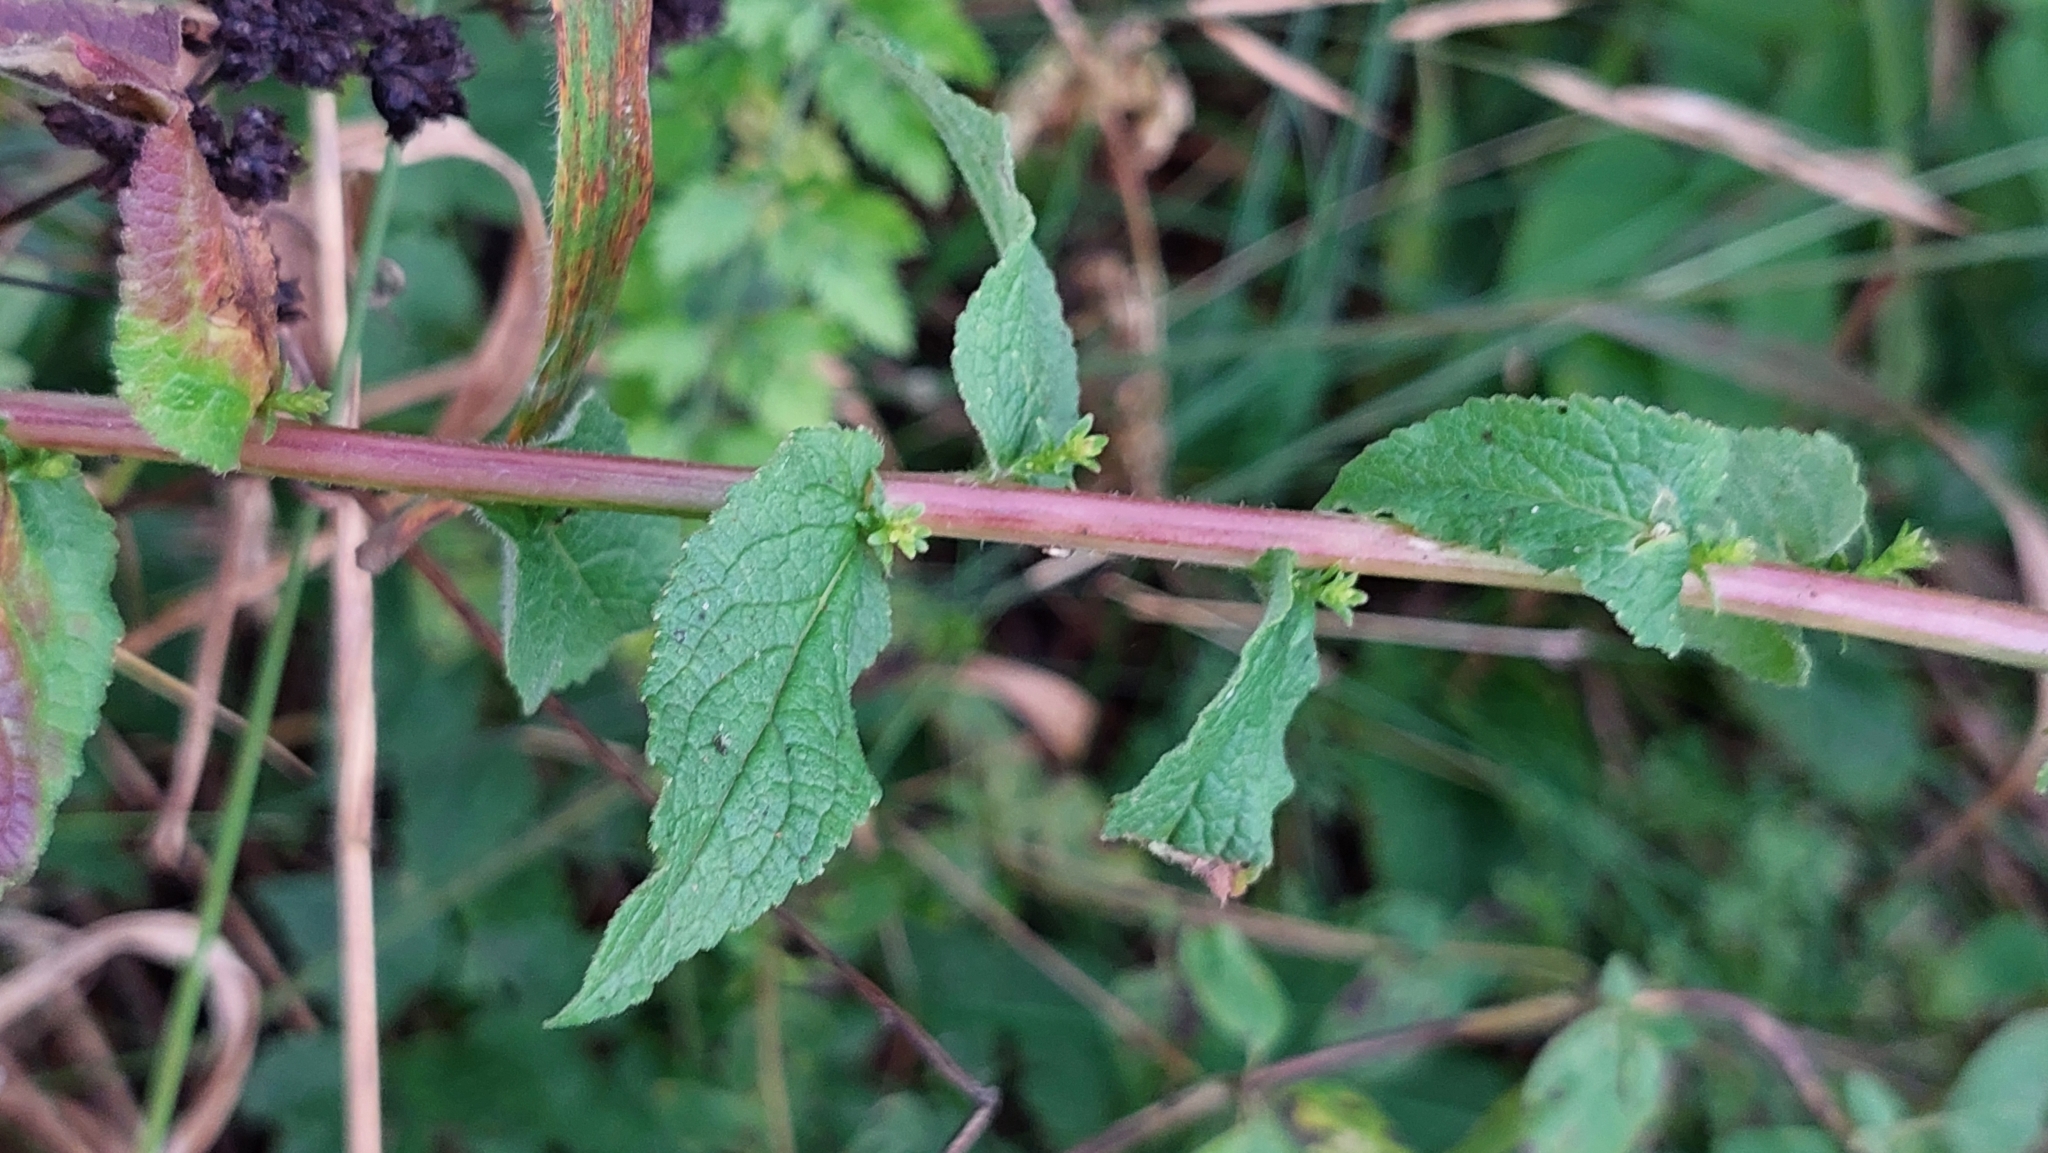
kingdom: Plantae
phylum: Tracheophyta
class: Magnoliopsida
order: Asterales
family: Campanulaceae
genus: Campanula
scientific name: Campanula glomerata
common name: Clustered bellflower
